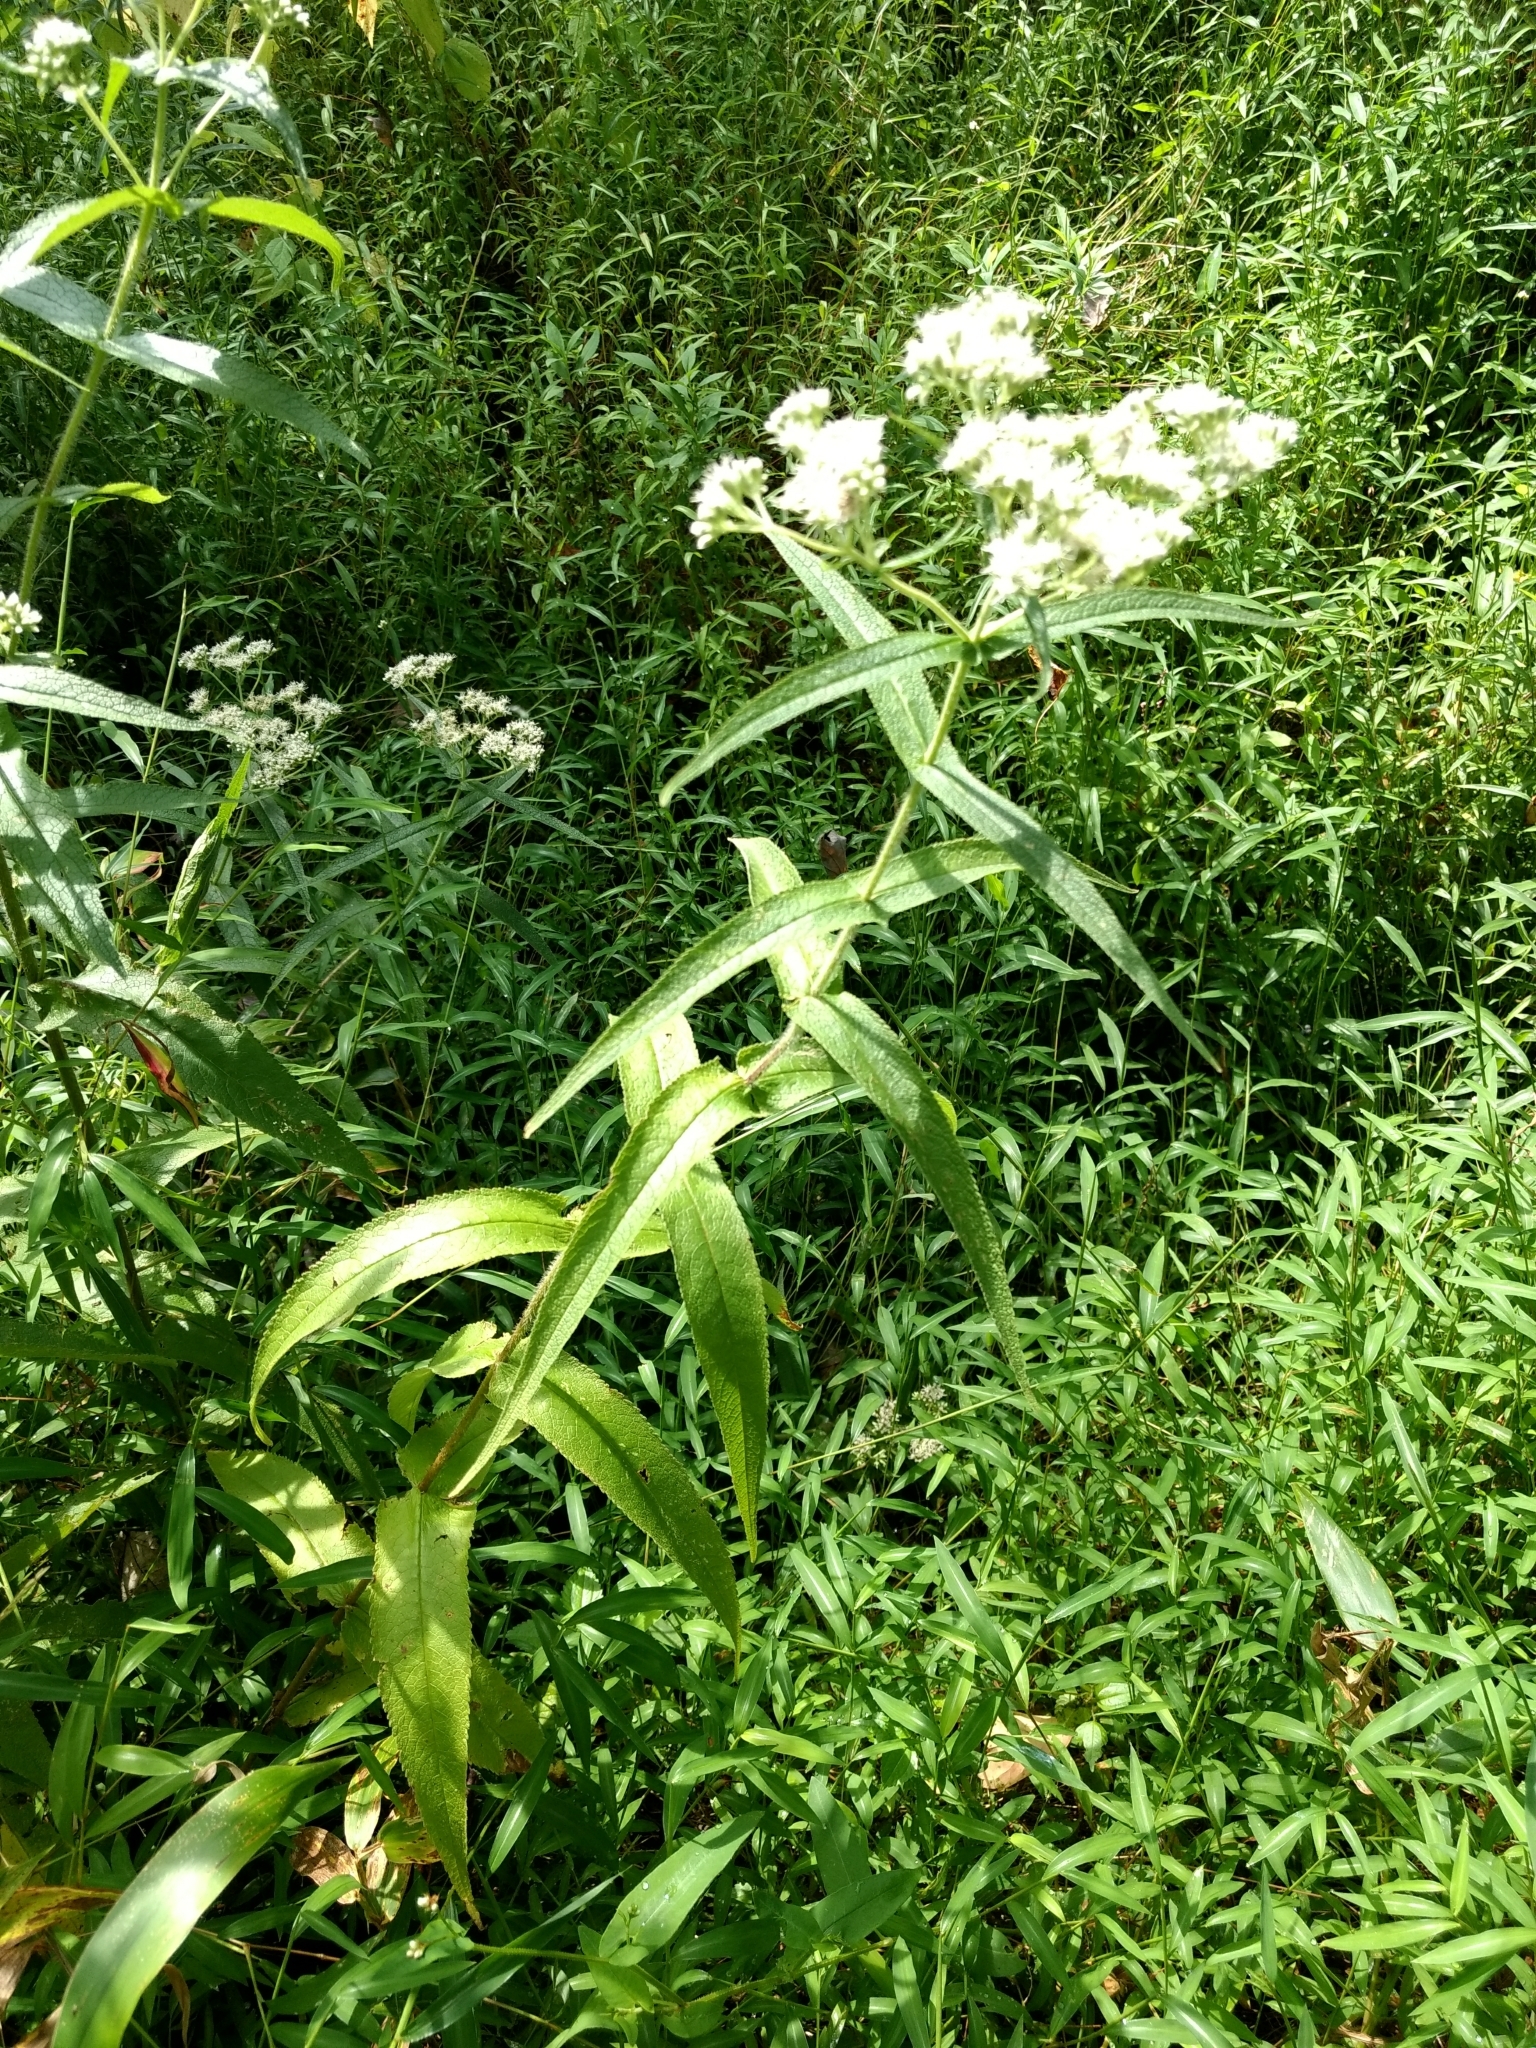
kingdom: Plantae
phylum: Tracheophyta
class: Magnoliopsida
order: Asterales
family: Asteraceae
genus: Eupatorium
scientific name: Eupatorium perfoliatum
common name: Boneset
